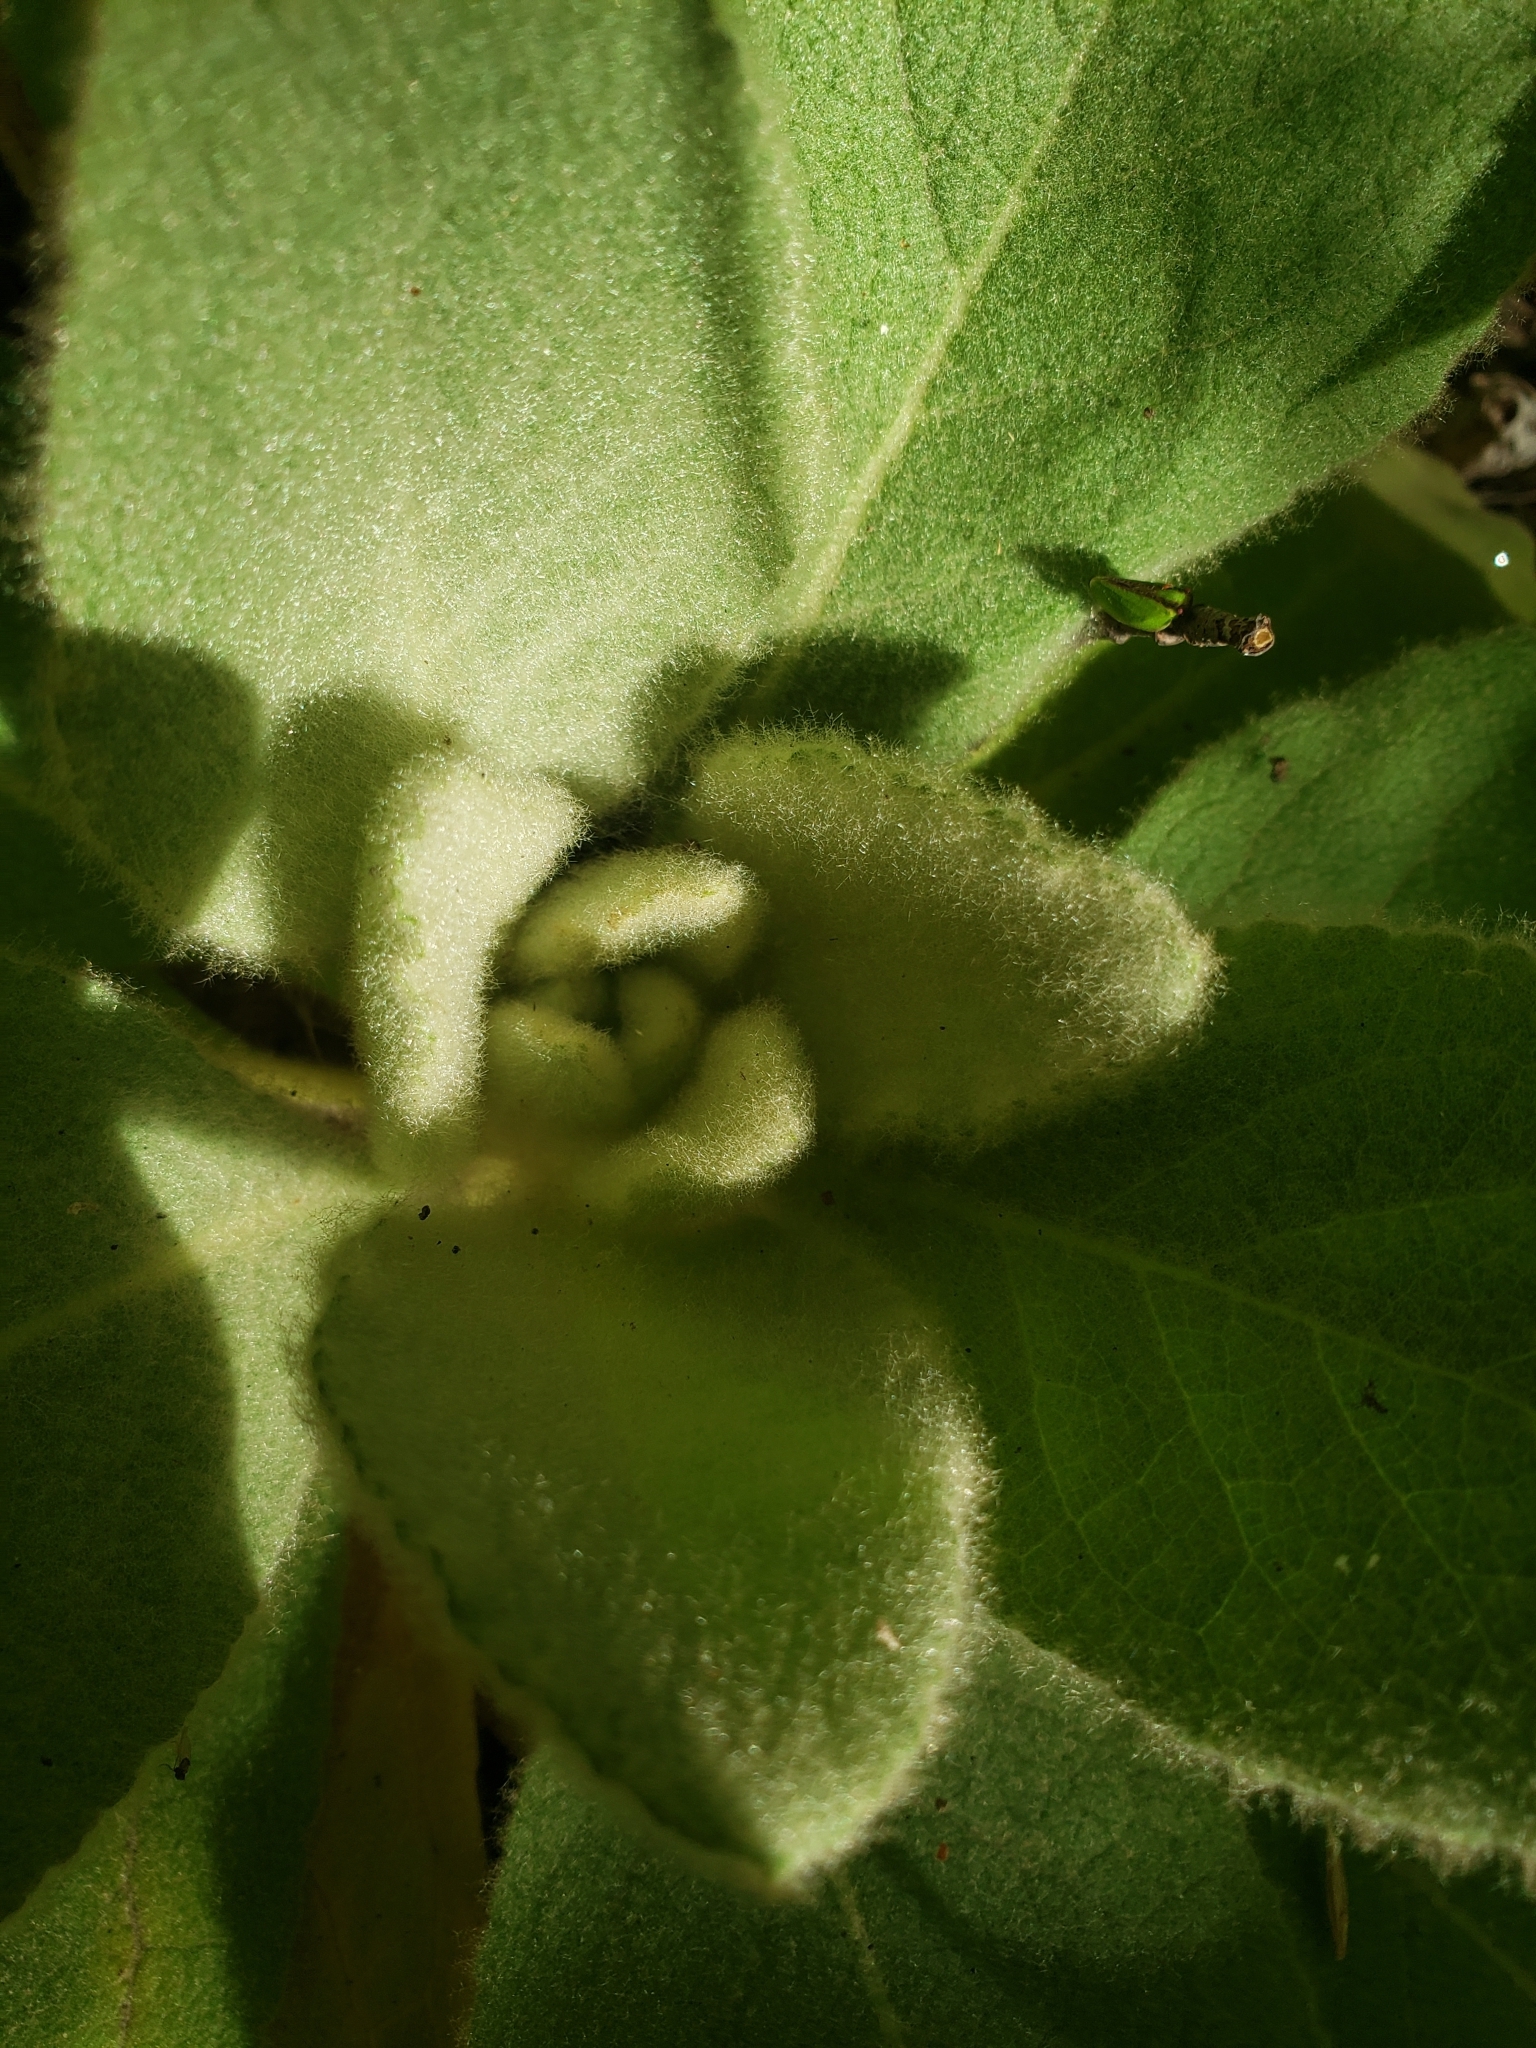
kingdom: Plantae
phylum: Tracheophyta
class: Magnoliopsida
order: Lamiales
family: Scrophulariaceae
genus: Verbascum
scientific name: Verbascum thapsus
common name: Common mullein
